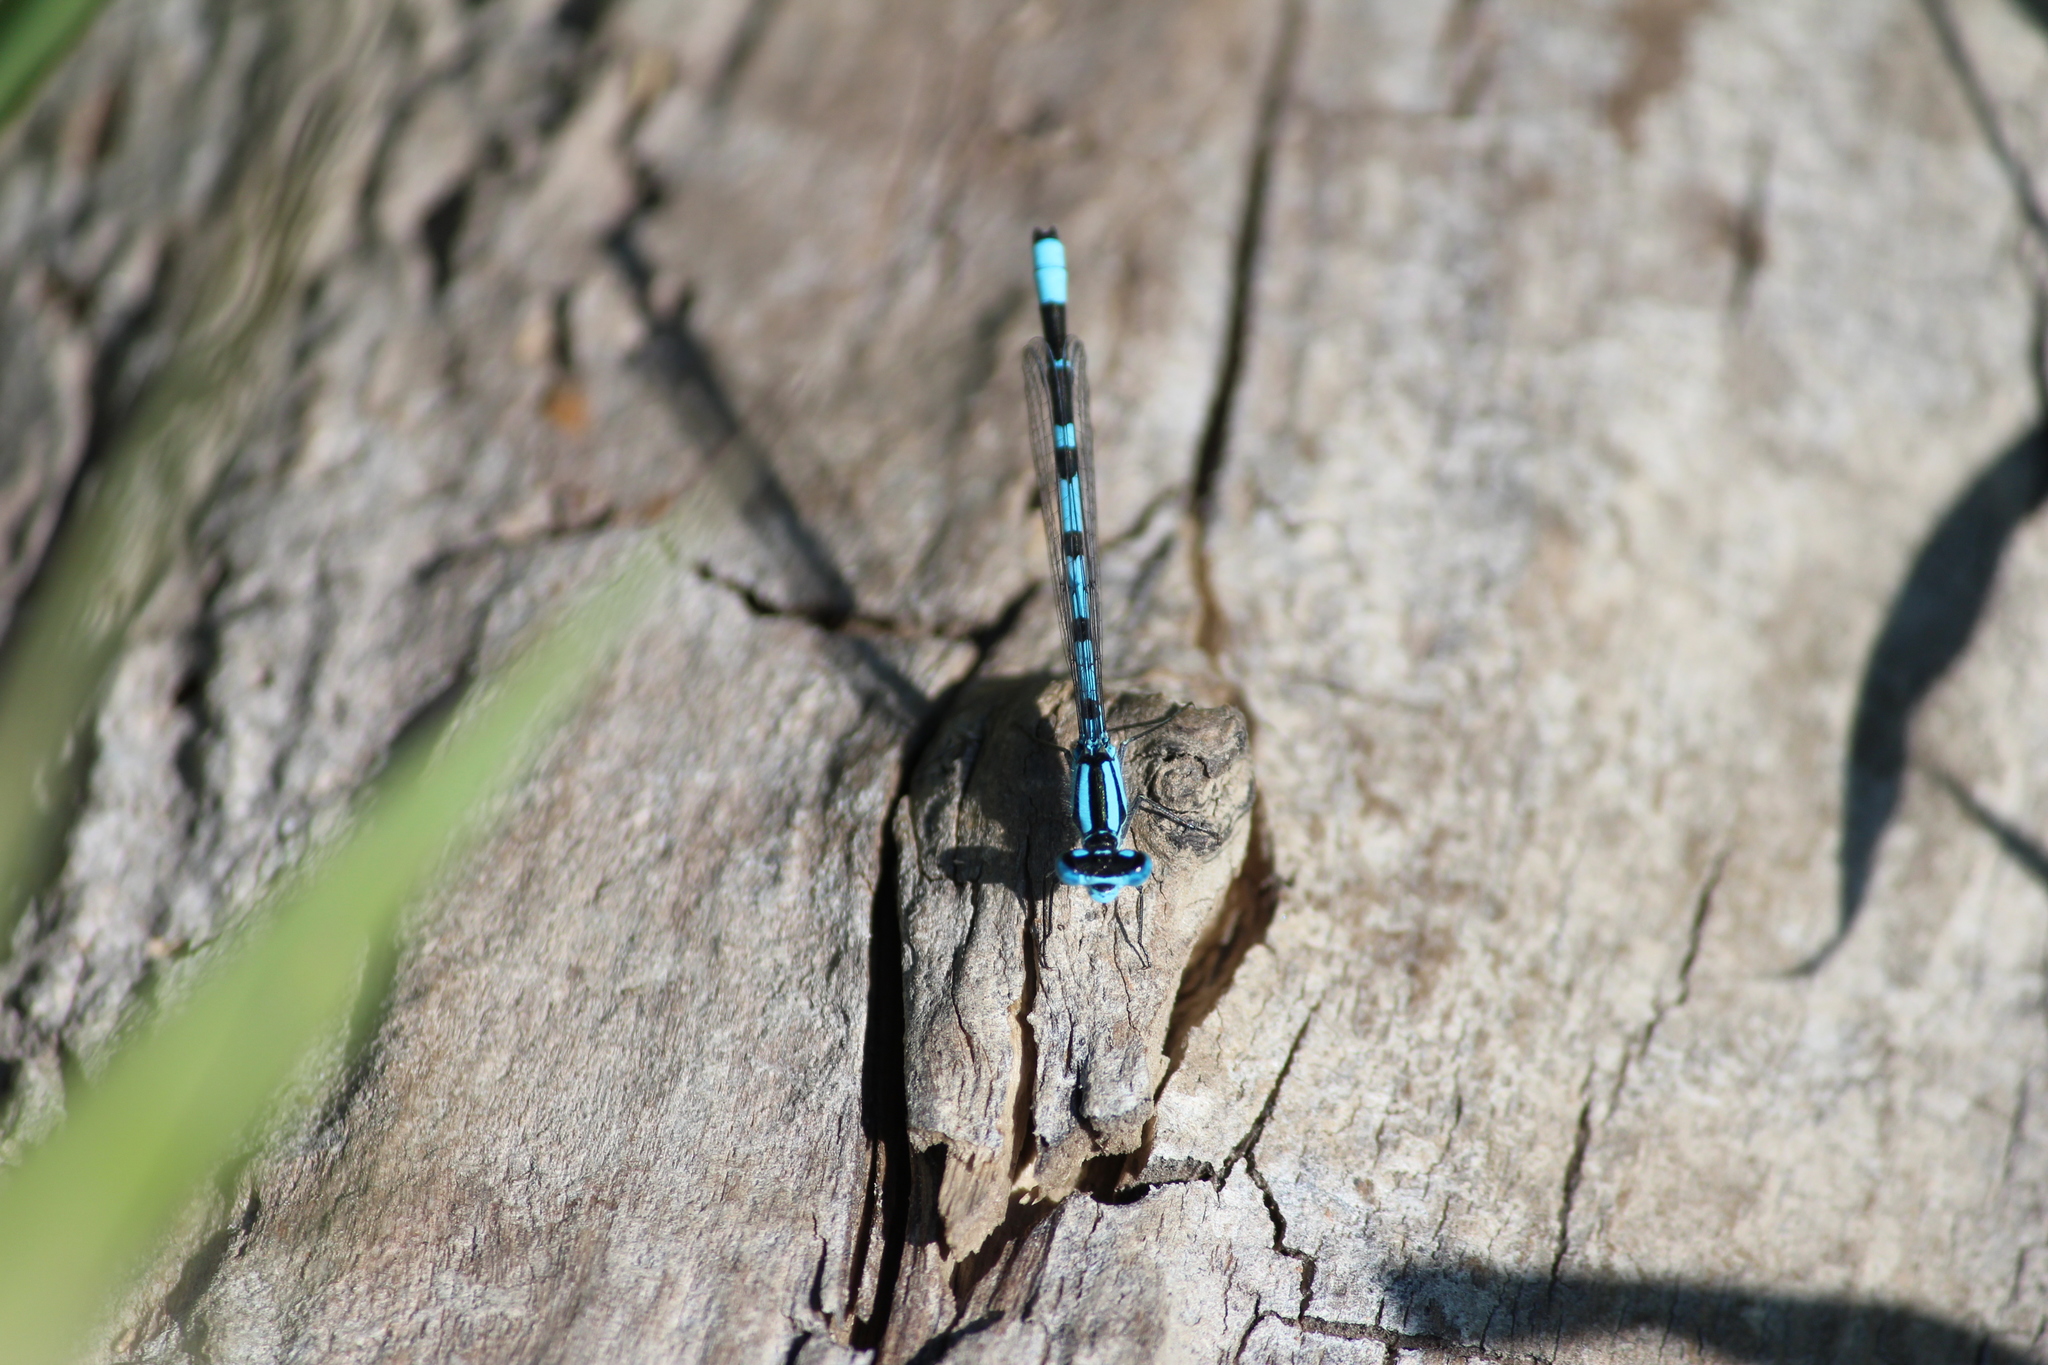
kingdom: Animalia
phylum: Arthropoda
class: Insecta
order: Odonata
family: Coenagrionidae
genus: Enallagma
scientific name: Enallagma cyathigerum
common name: Common blue damselfly
